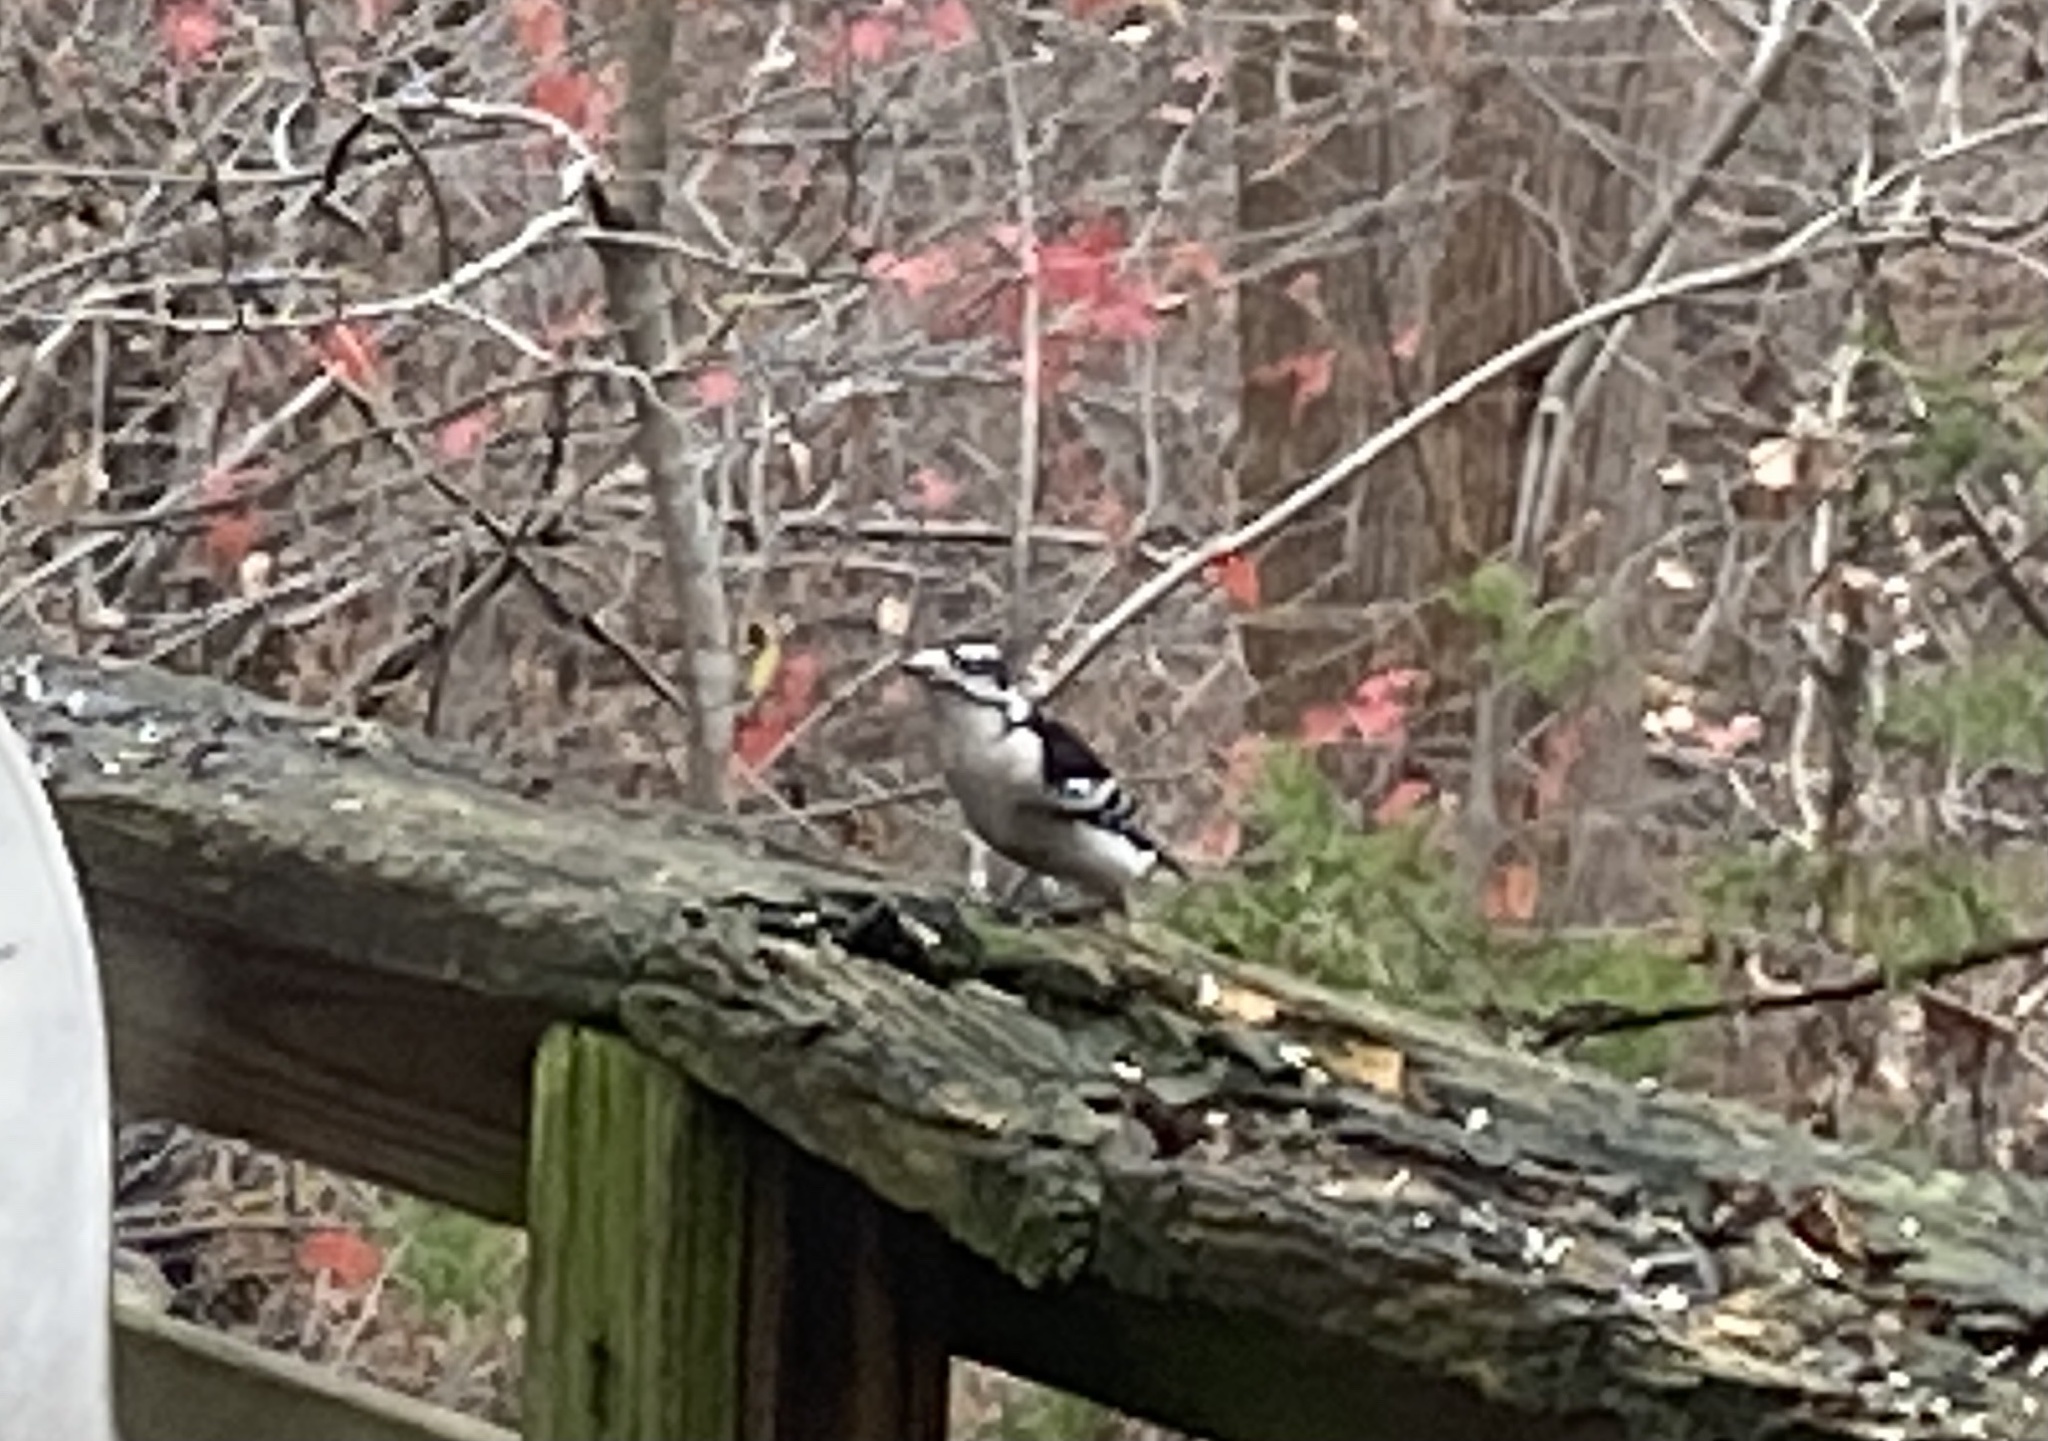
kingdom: Animalia
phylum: Chordata
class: Aves
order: Piciformes
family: Picidae
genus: Dryobates
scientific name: Dryobates pubescens
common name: Downy woodpecker
